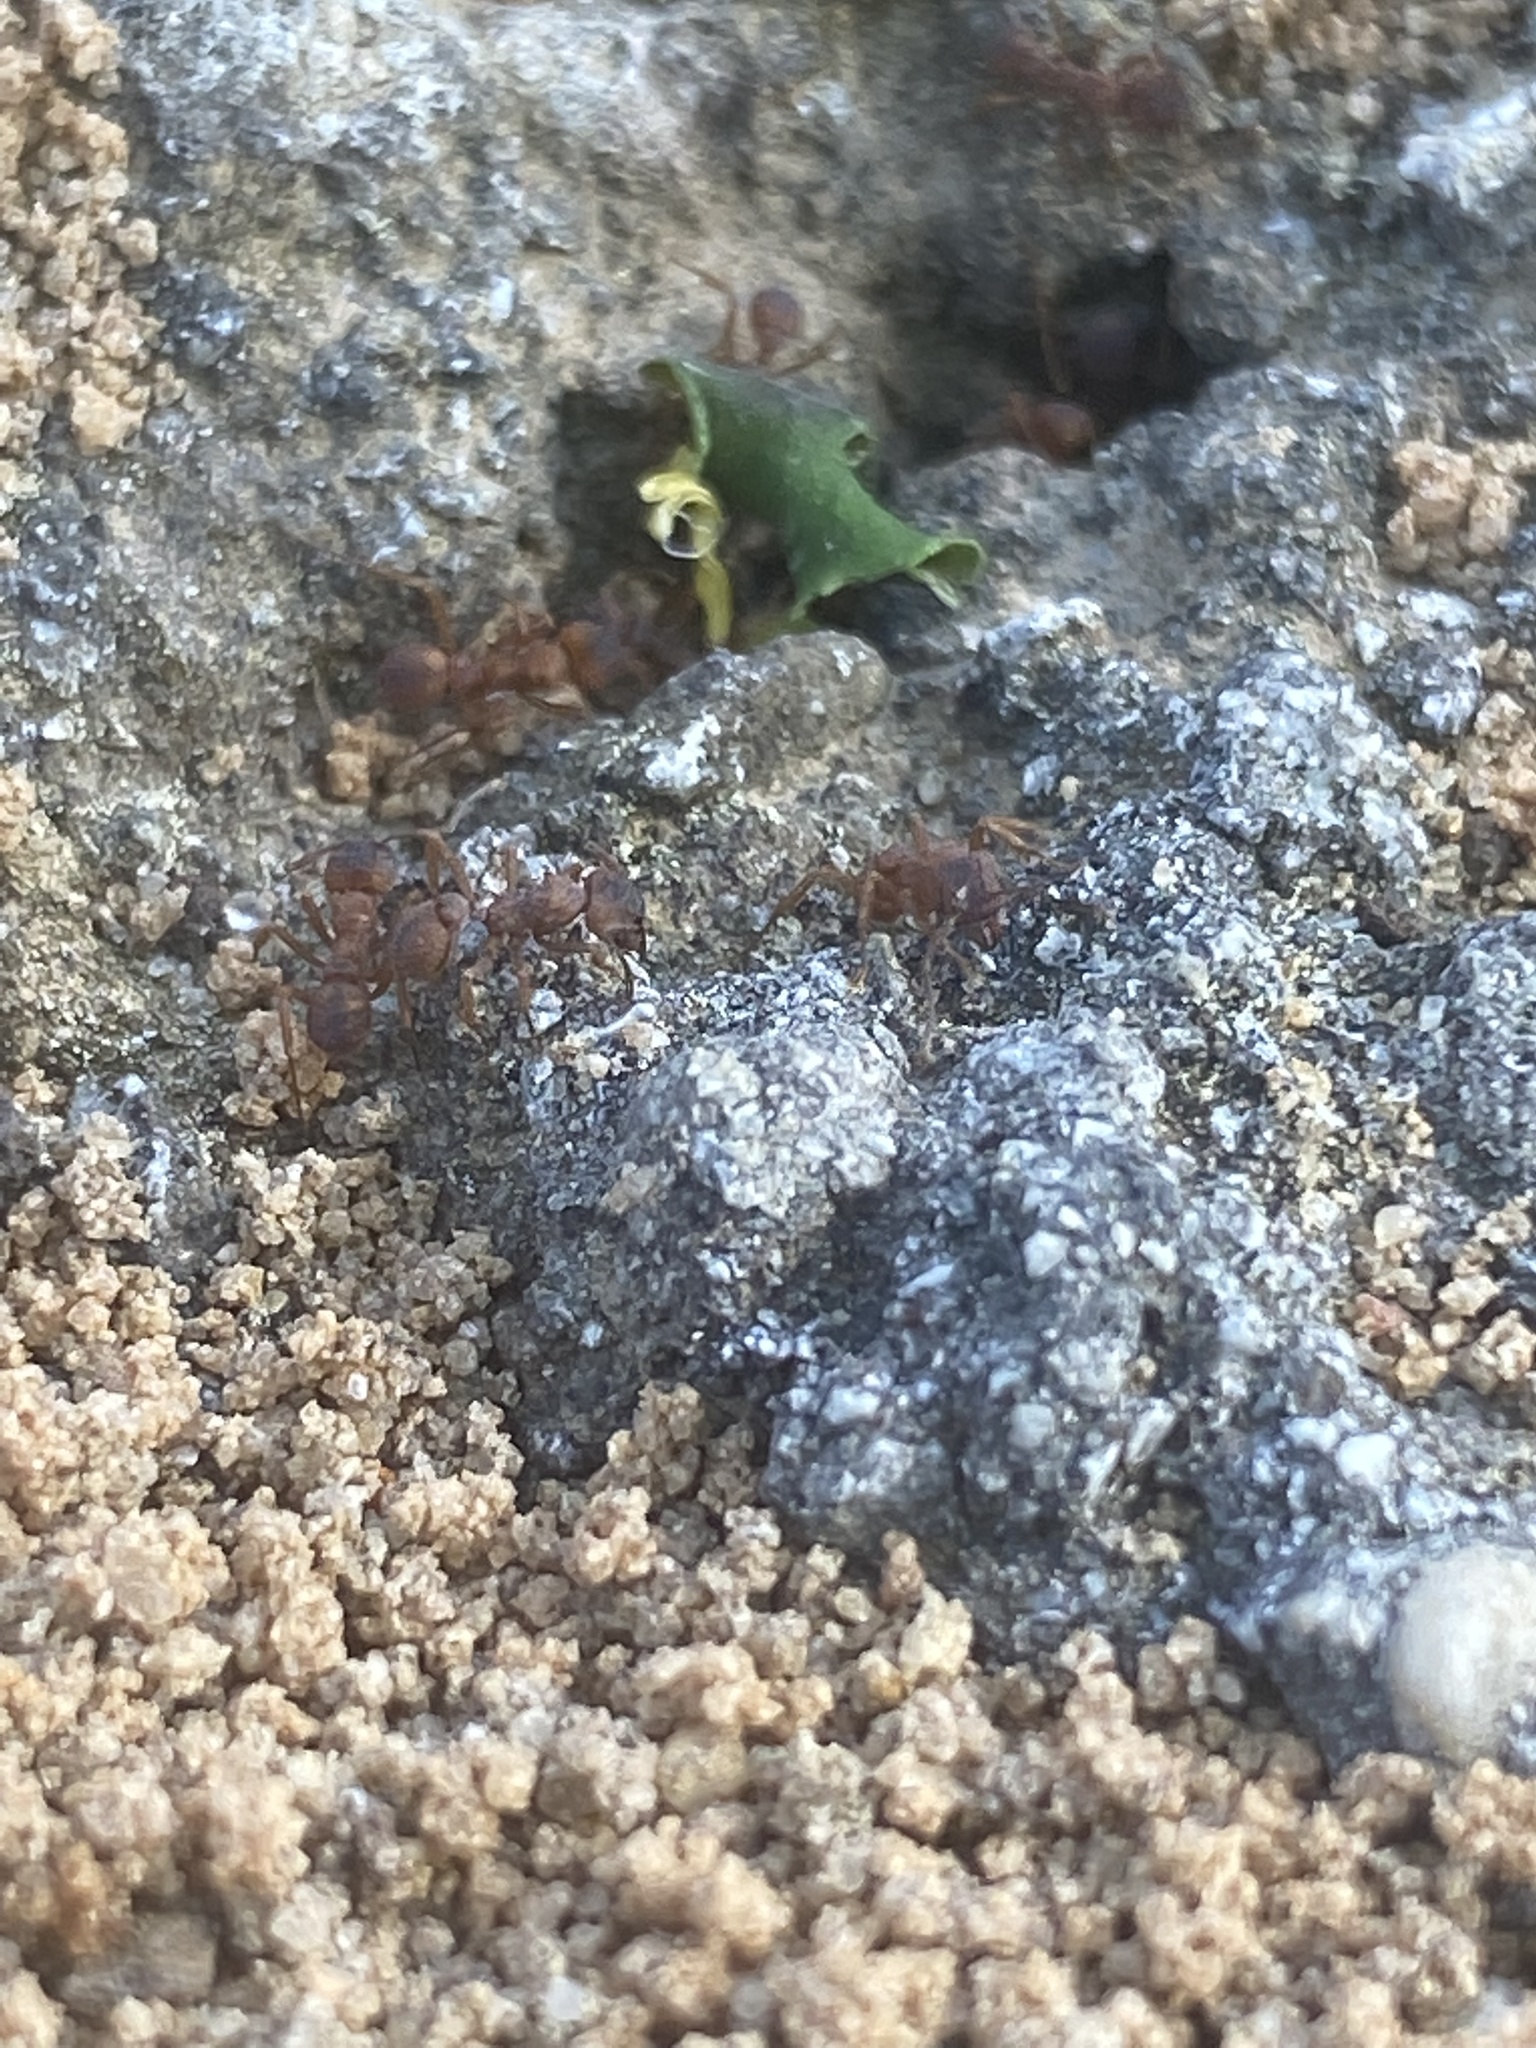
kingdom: Animalia
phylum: Arthropoda
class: Insecta
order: Hymenoptera
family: Formicidae
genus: Trachymyrmex
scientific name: Trachymyrmex septentrionalis
